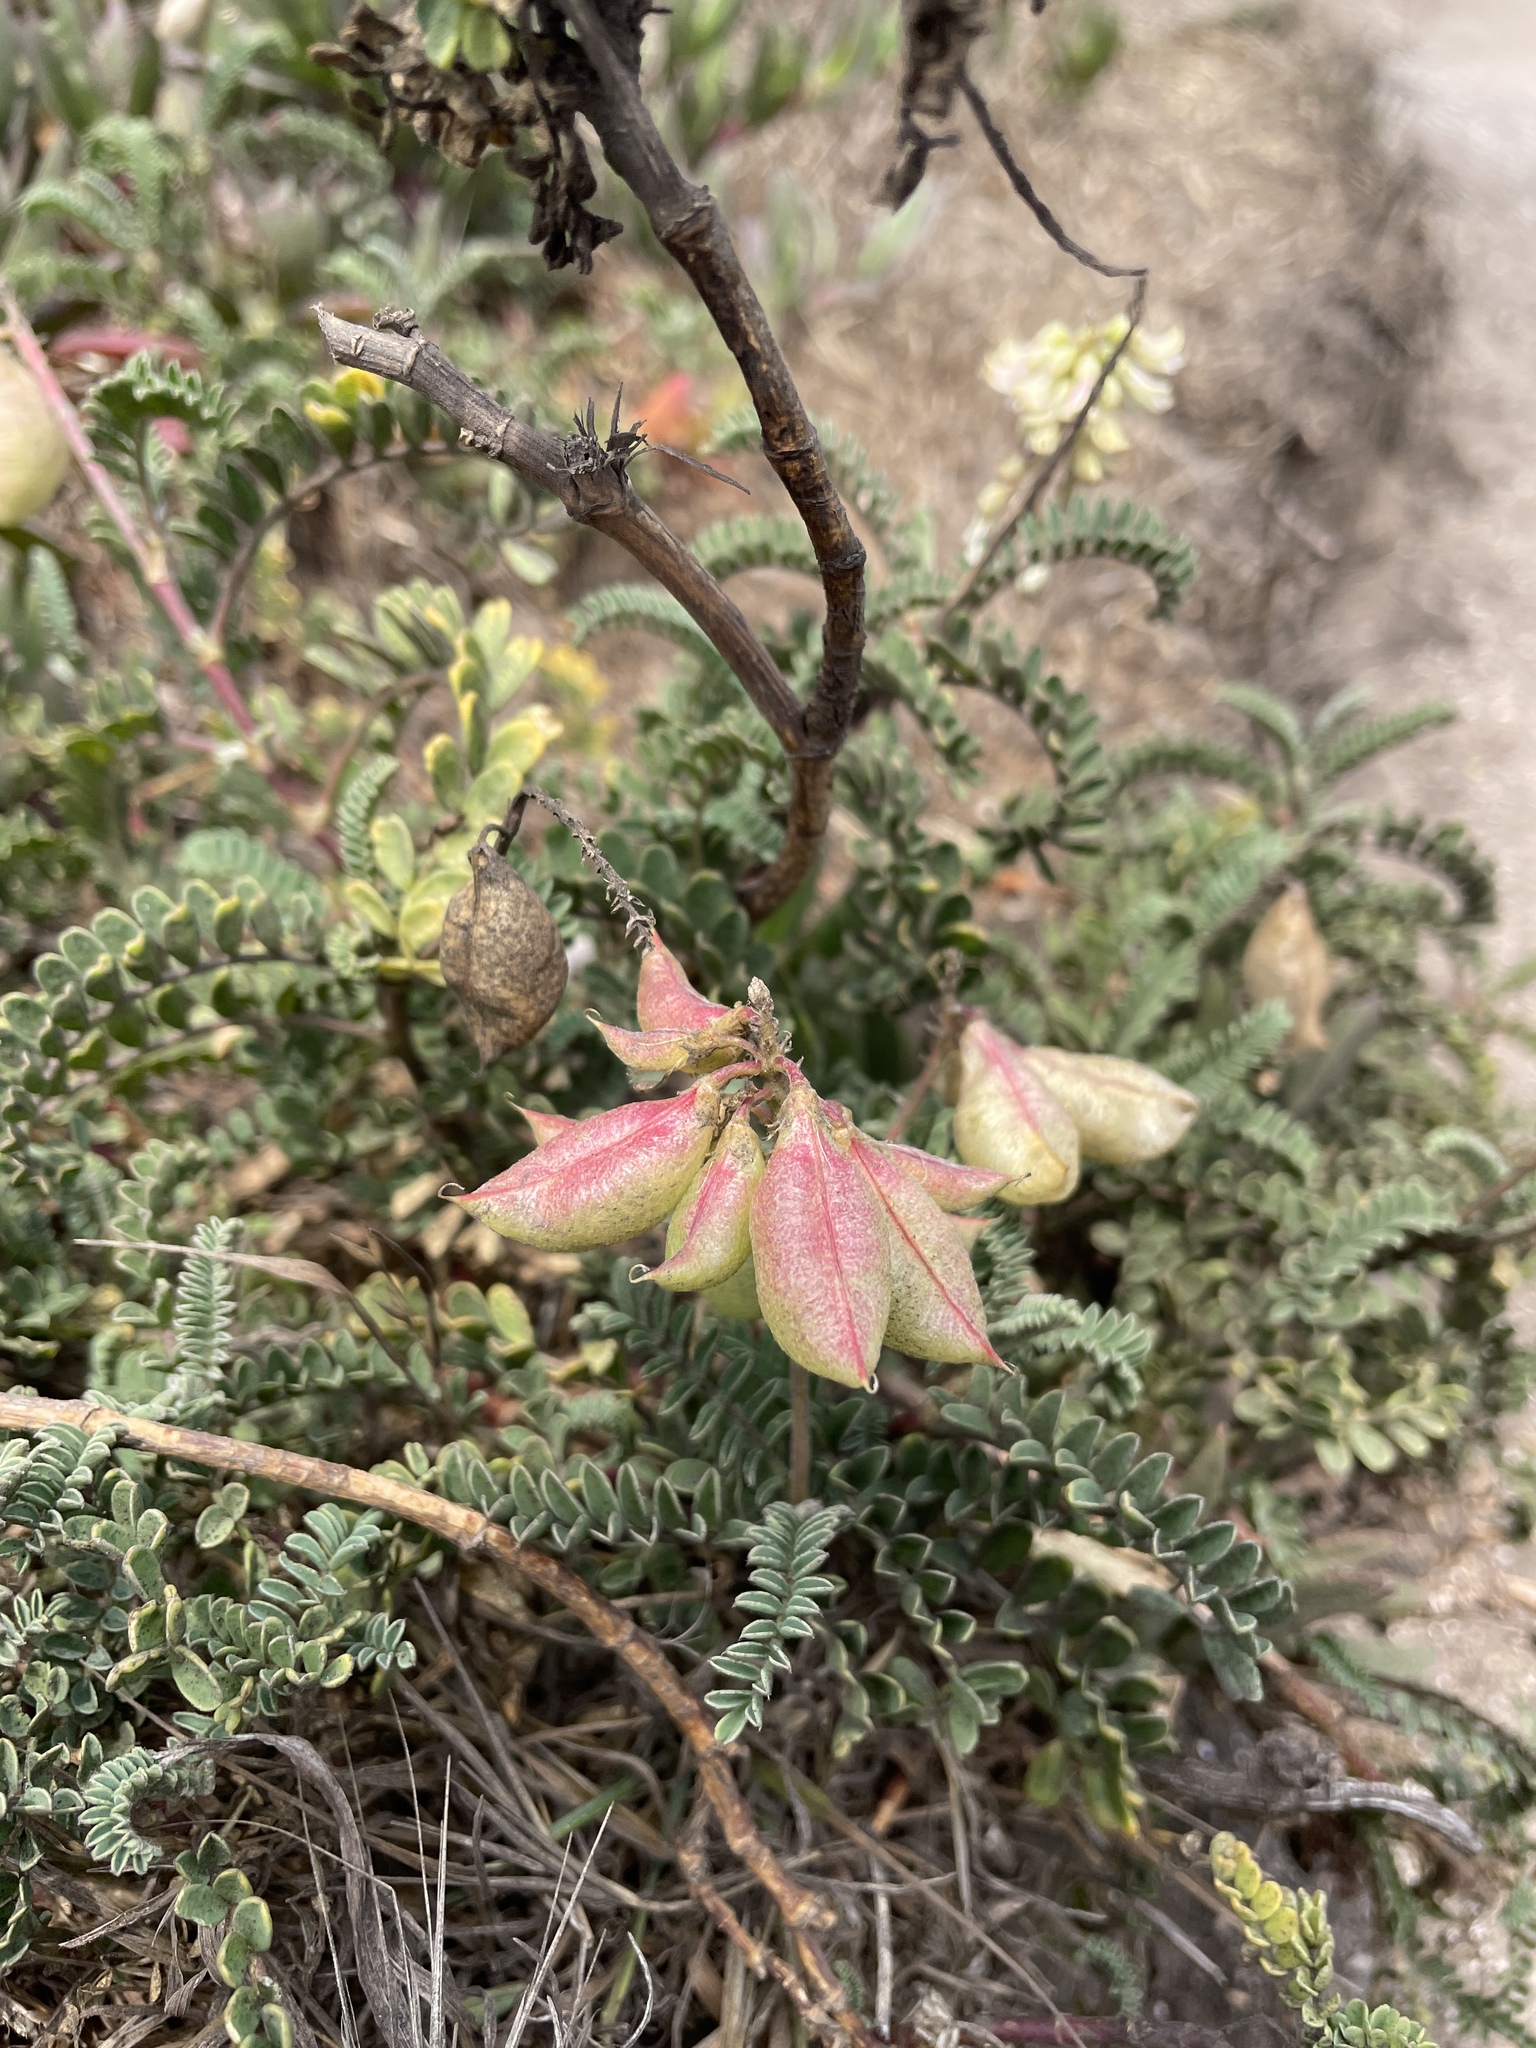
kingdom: Plantae
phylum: Tracheophyta
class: Magnoliopsida
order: Fabales
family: Fabaceae
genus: Astragalus
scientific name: Astragalus nuttallii
